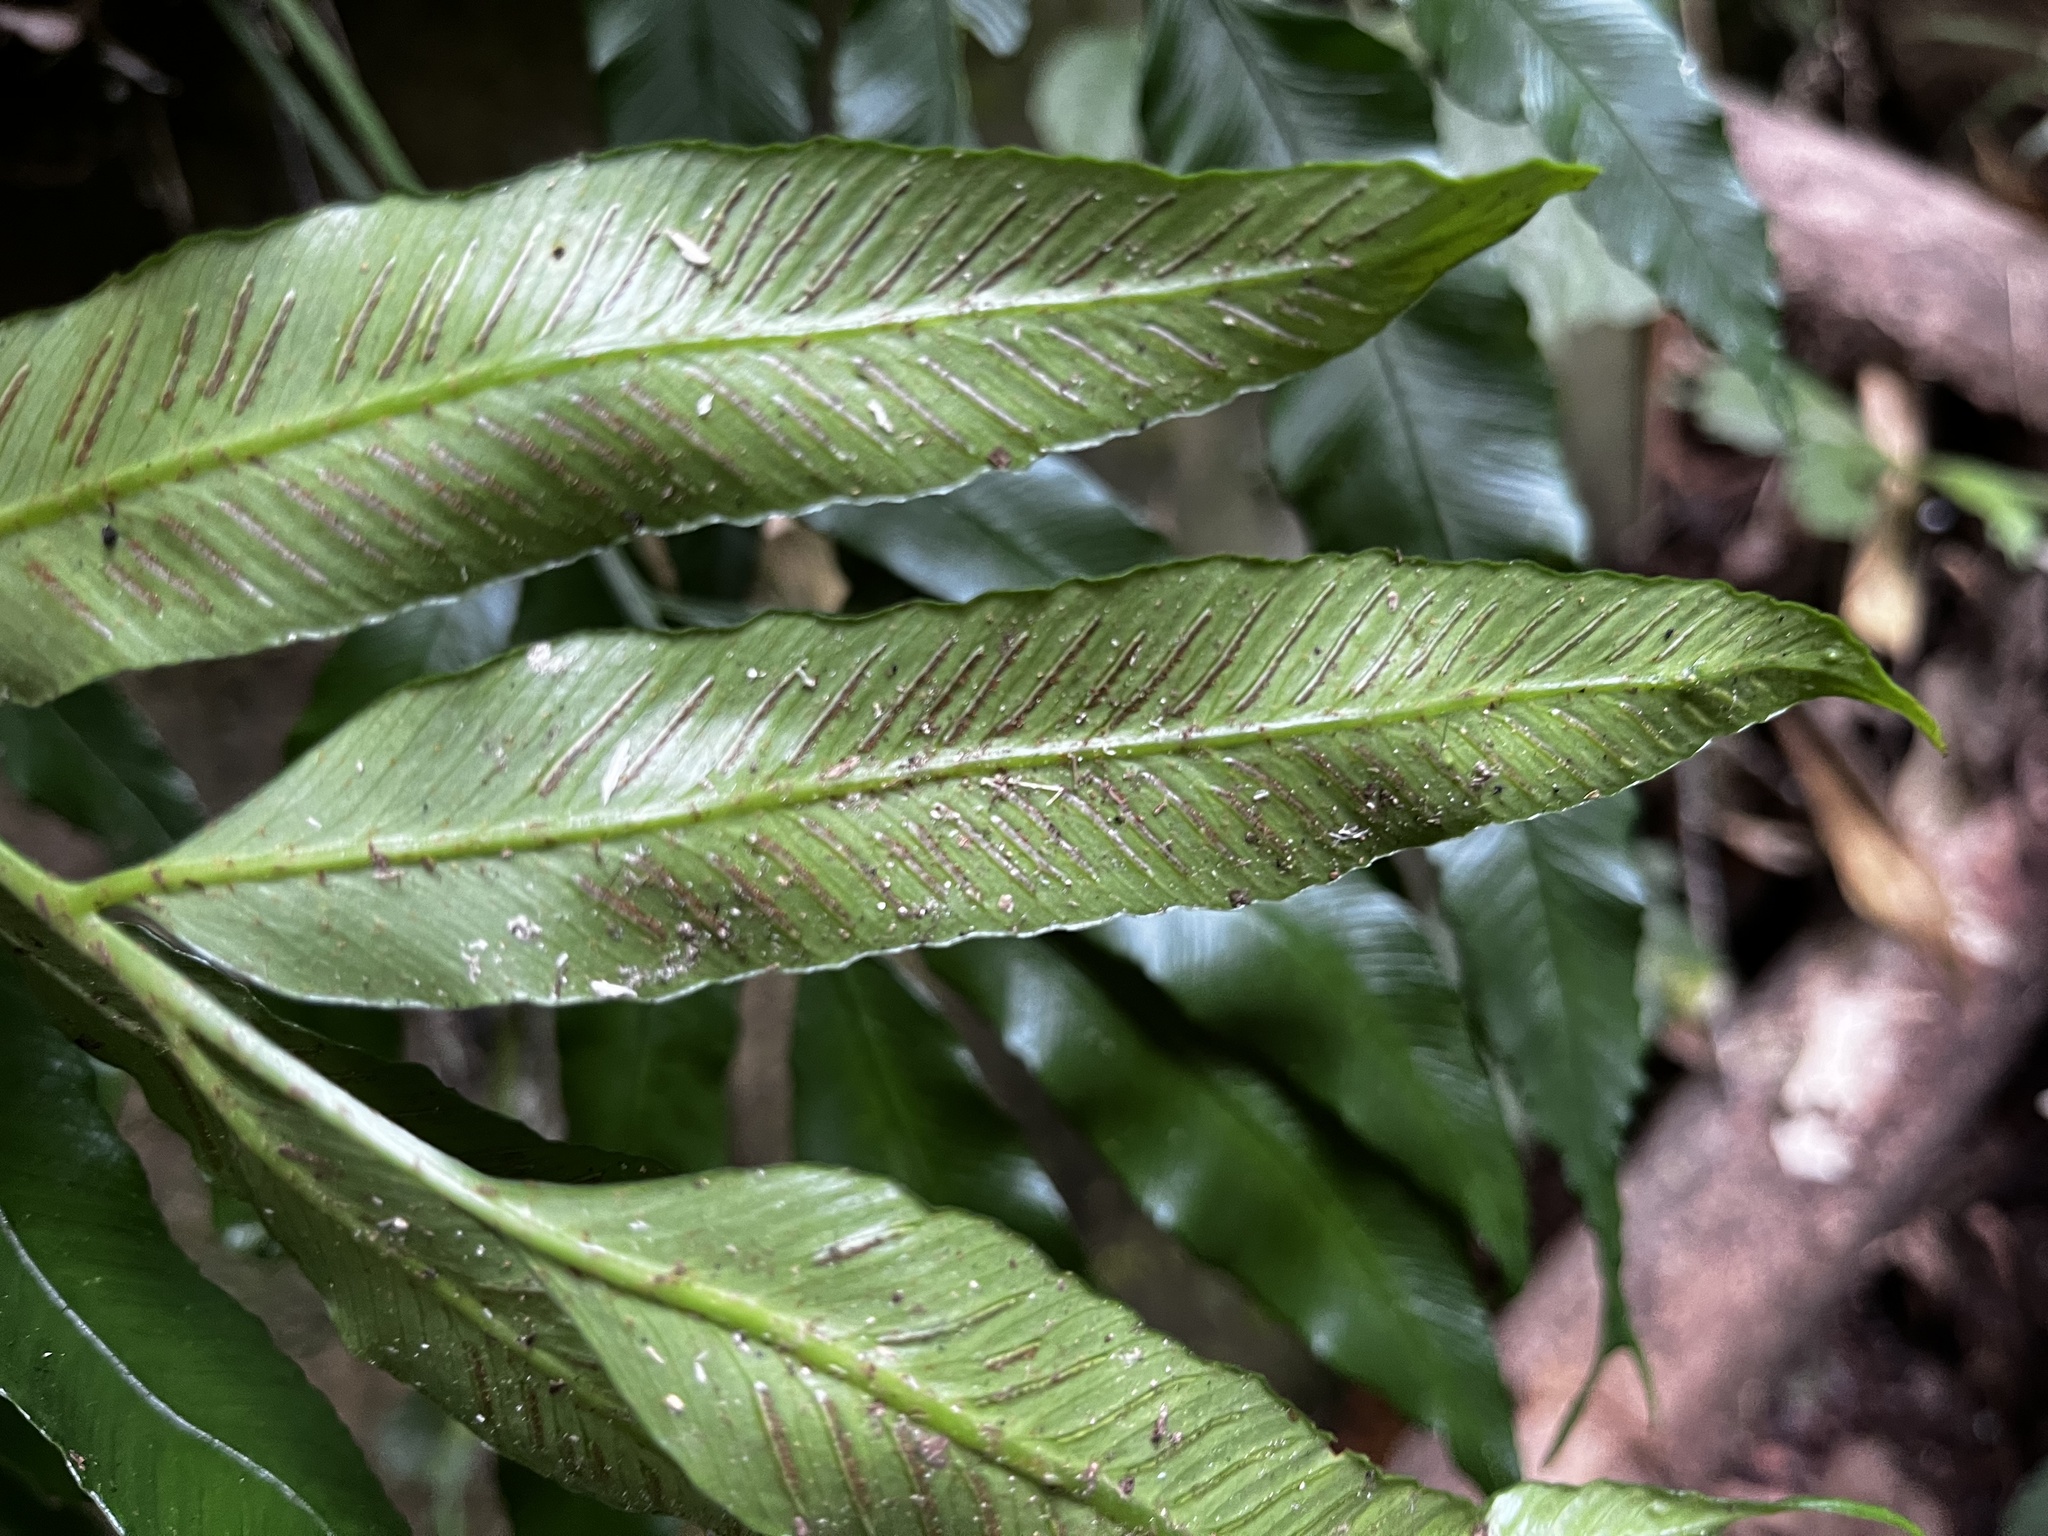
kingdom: Plantae
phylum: Tracheophyta
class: Polypodiopsida
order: Polypodiales
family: Aspleniaceae
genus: Asplenium
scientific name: Asplenium formosae
